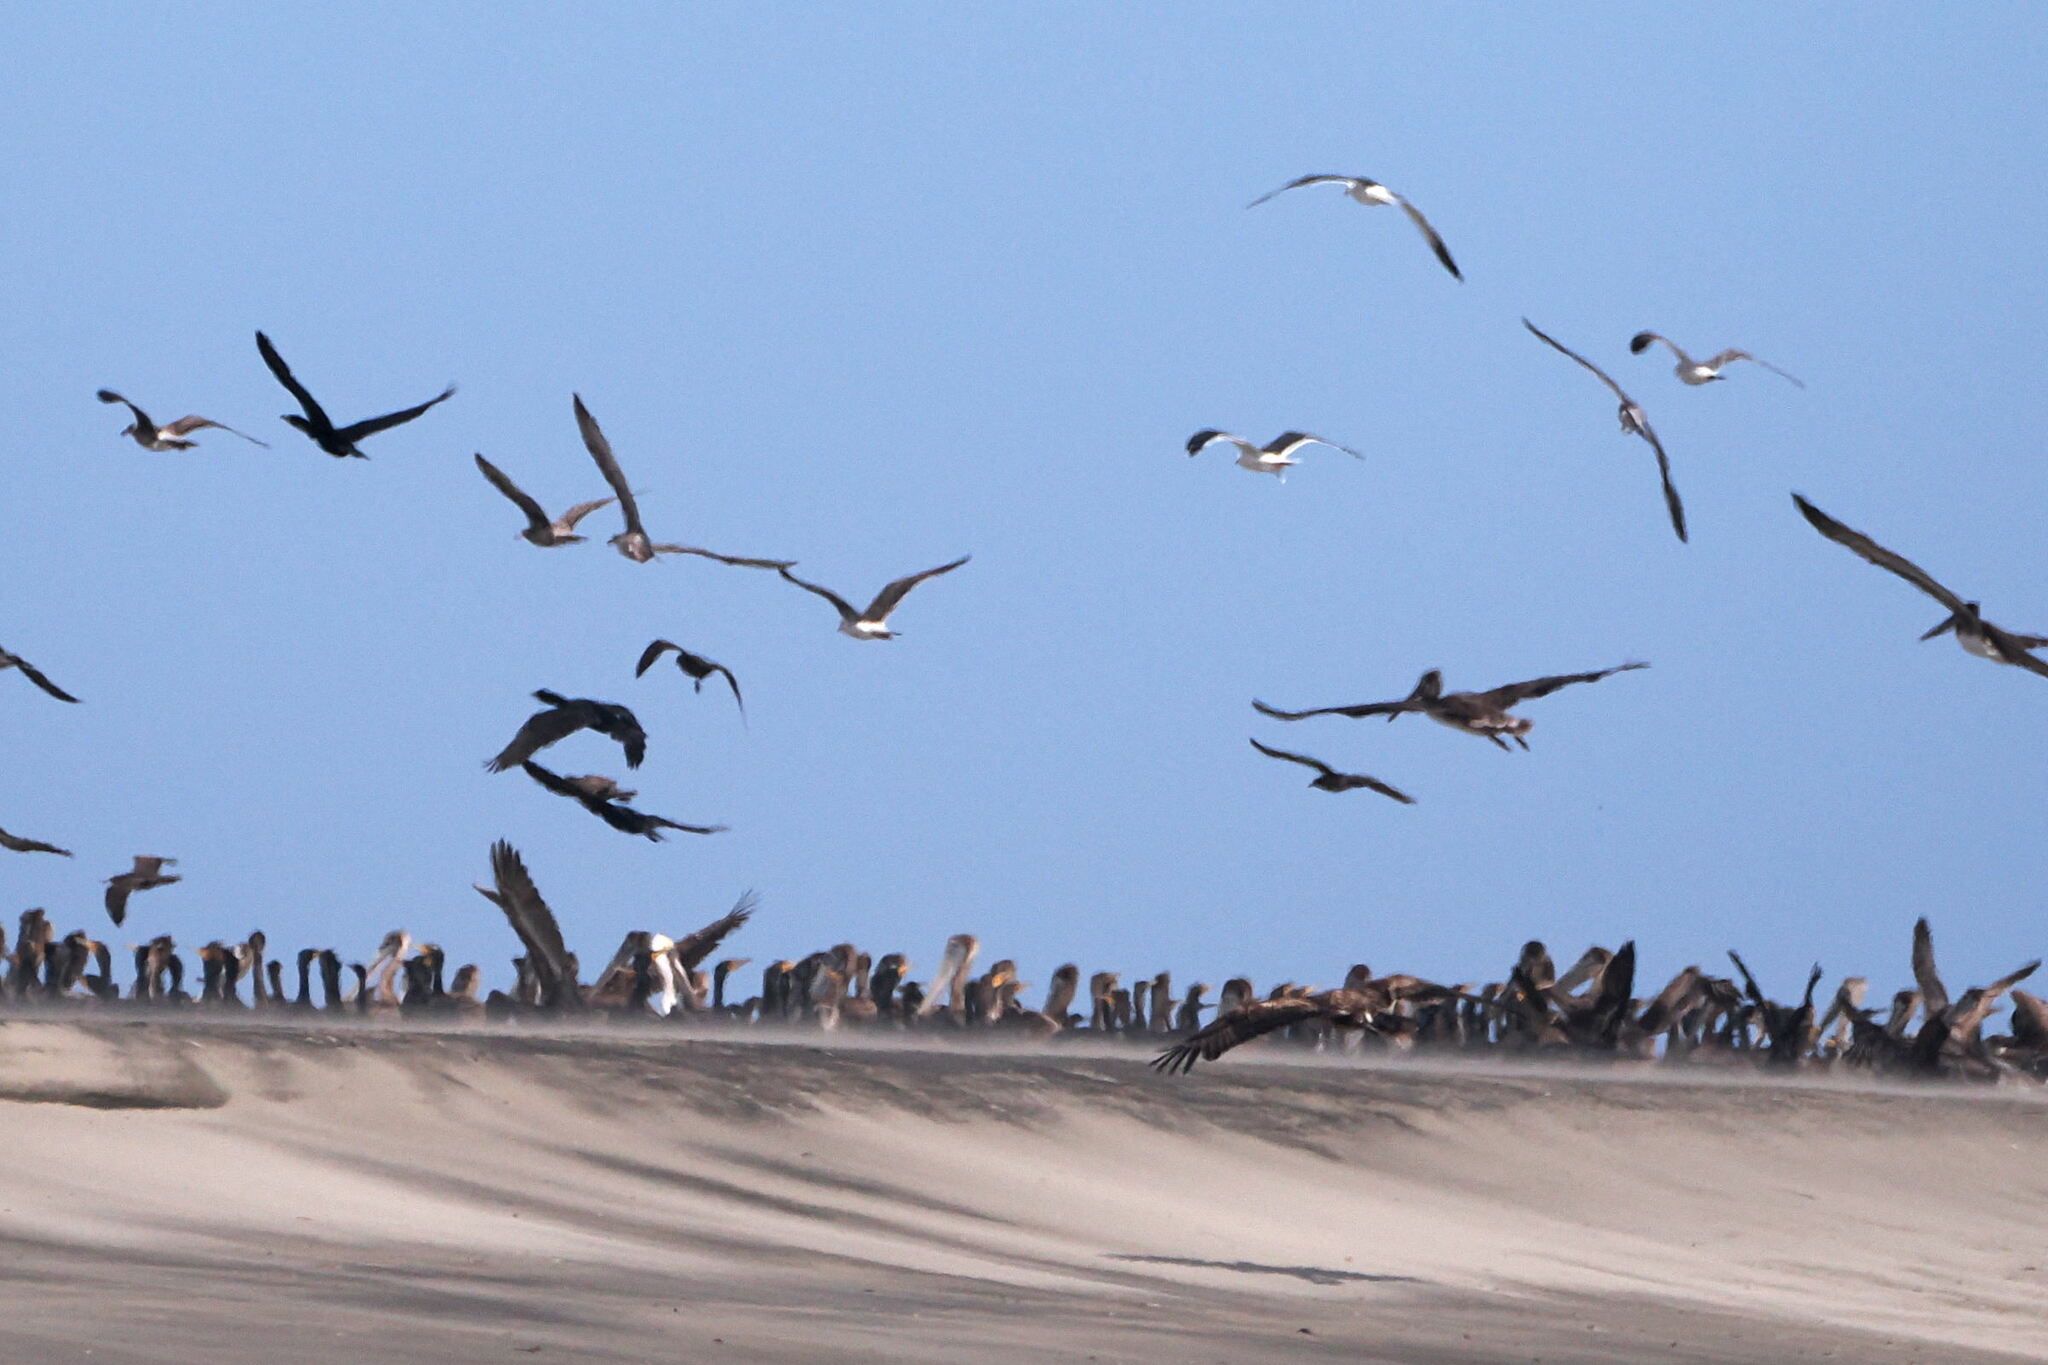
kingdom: Animalia
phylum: Chordata
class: Aves
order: Accipitriformes
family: Accipitridae
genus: Haliaeetus
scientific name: Haliaeetus leucocephalus
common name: Bald eagle
